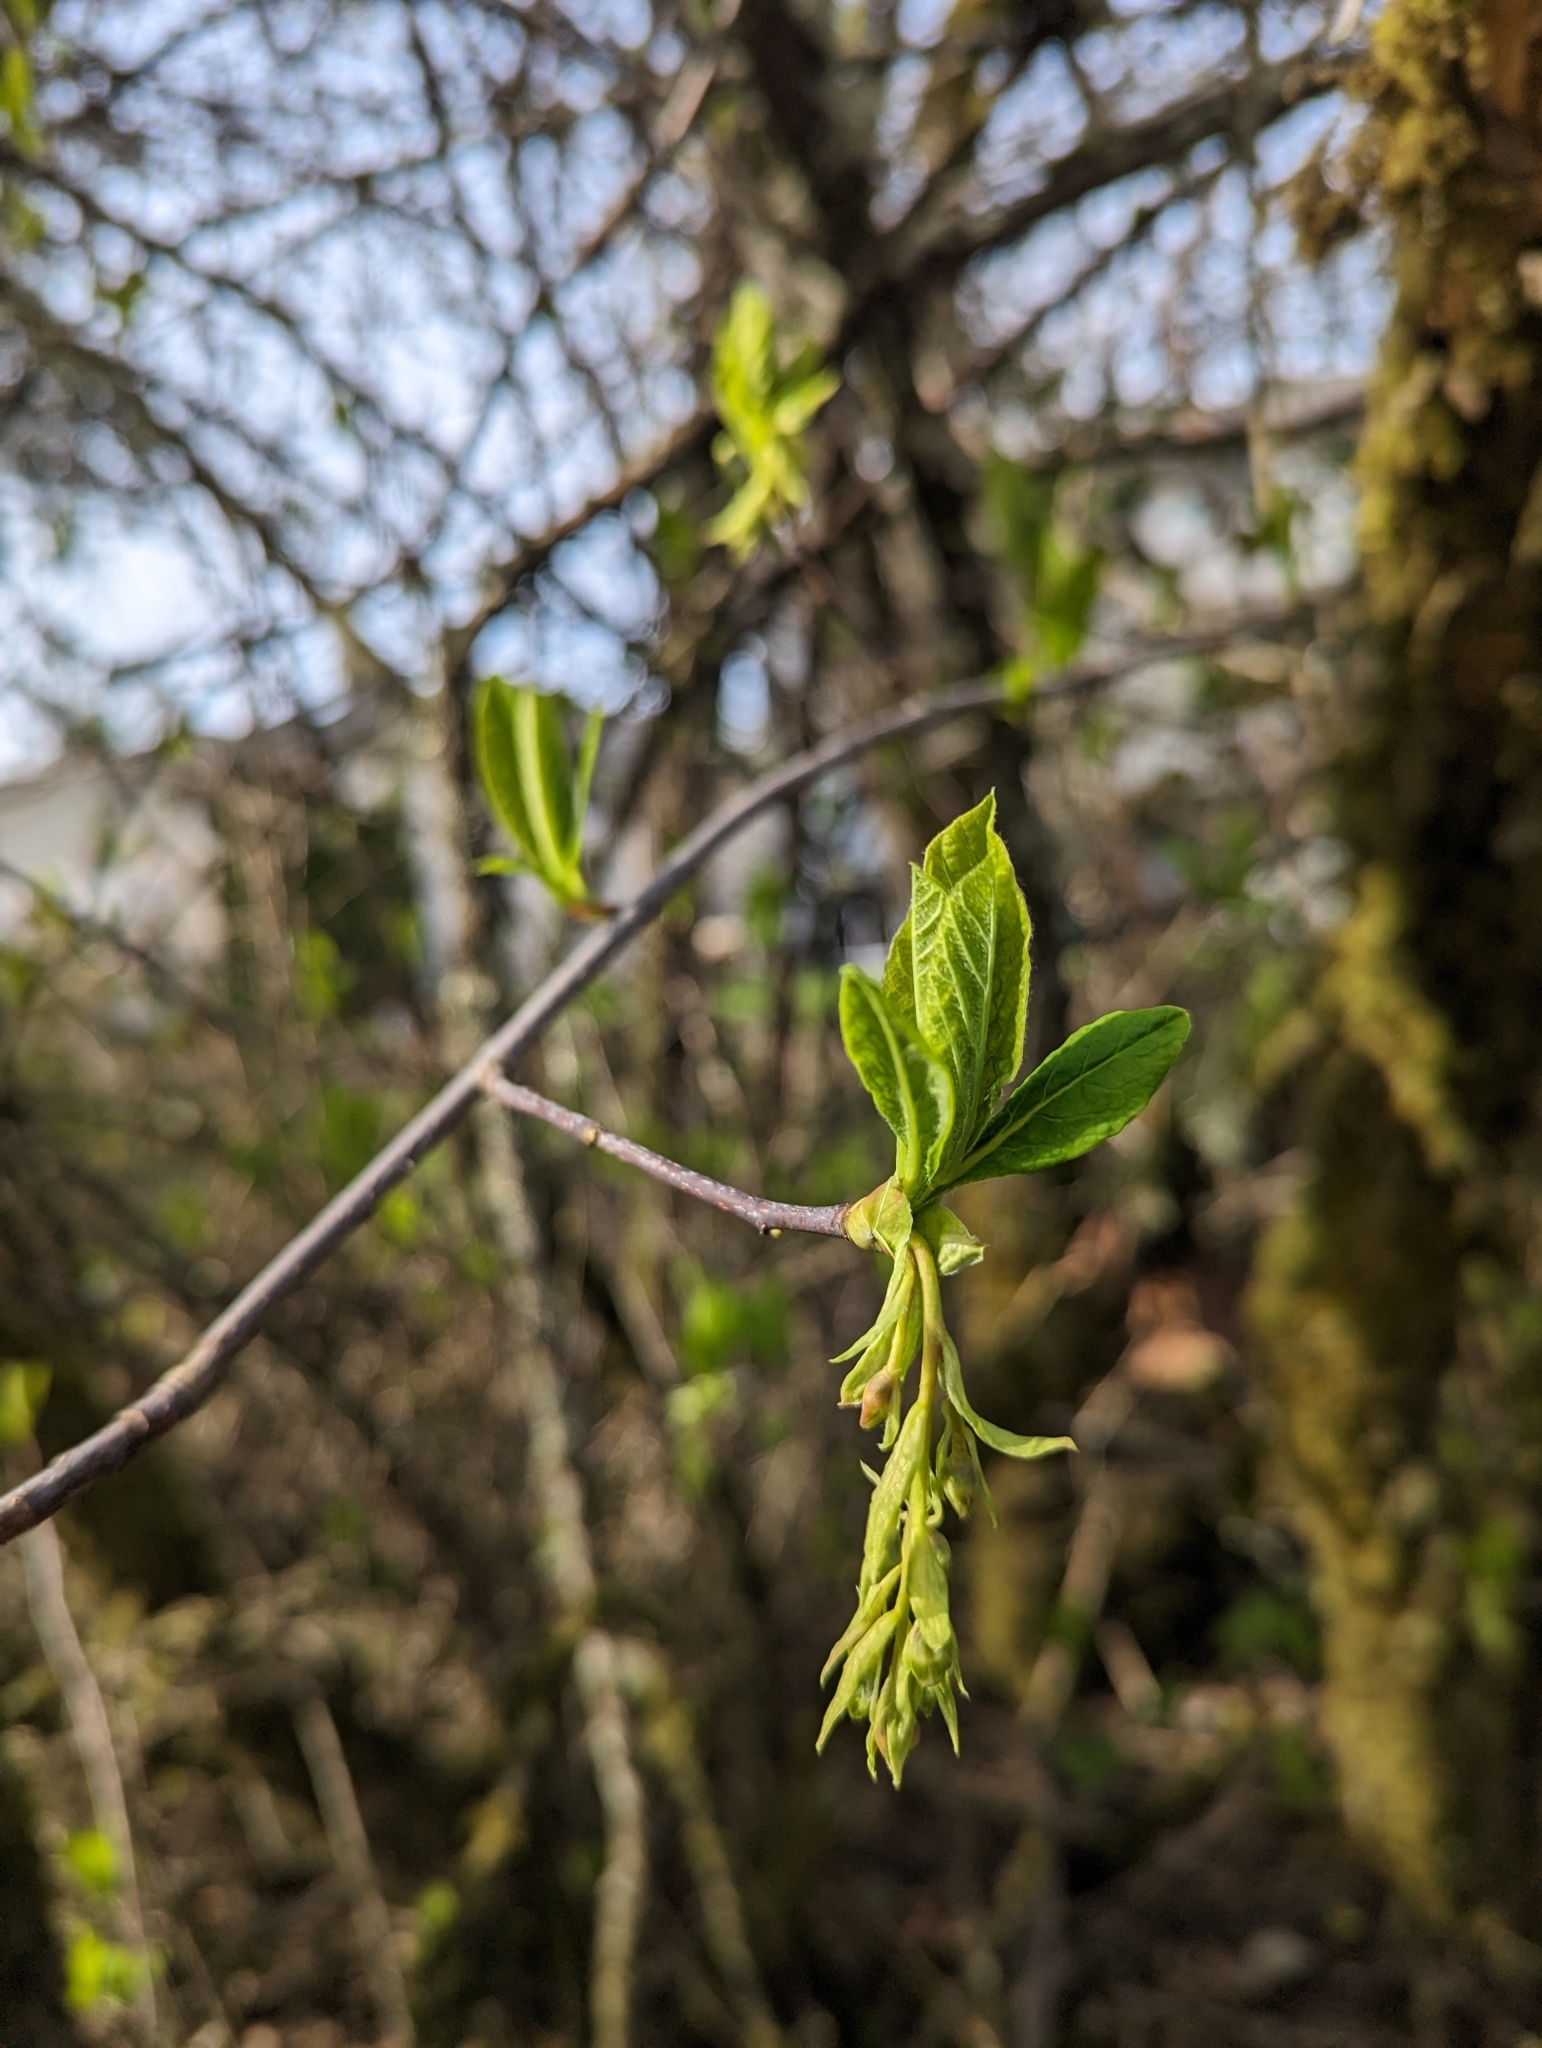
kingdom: Plantae
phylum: Tracheophyta
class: Magnoliopsida
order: Rosales
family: Rosaceae
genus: Oemleria
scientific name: Oemleria cerasiformis
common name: Osoberry
